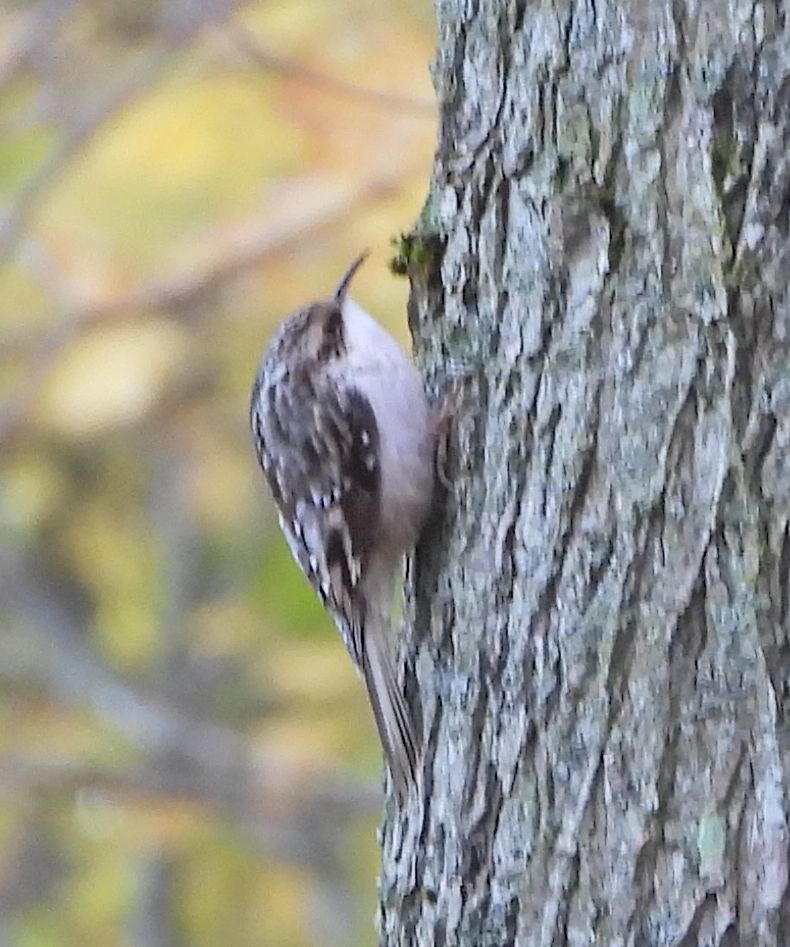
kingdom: Animalia
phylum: Chordata
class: Aves
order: Passeriformes
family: Certhiidae
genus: Certhia
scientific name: Certhia americana
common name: Brown creeper
